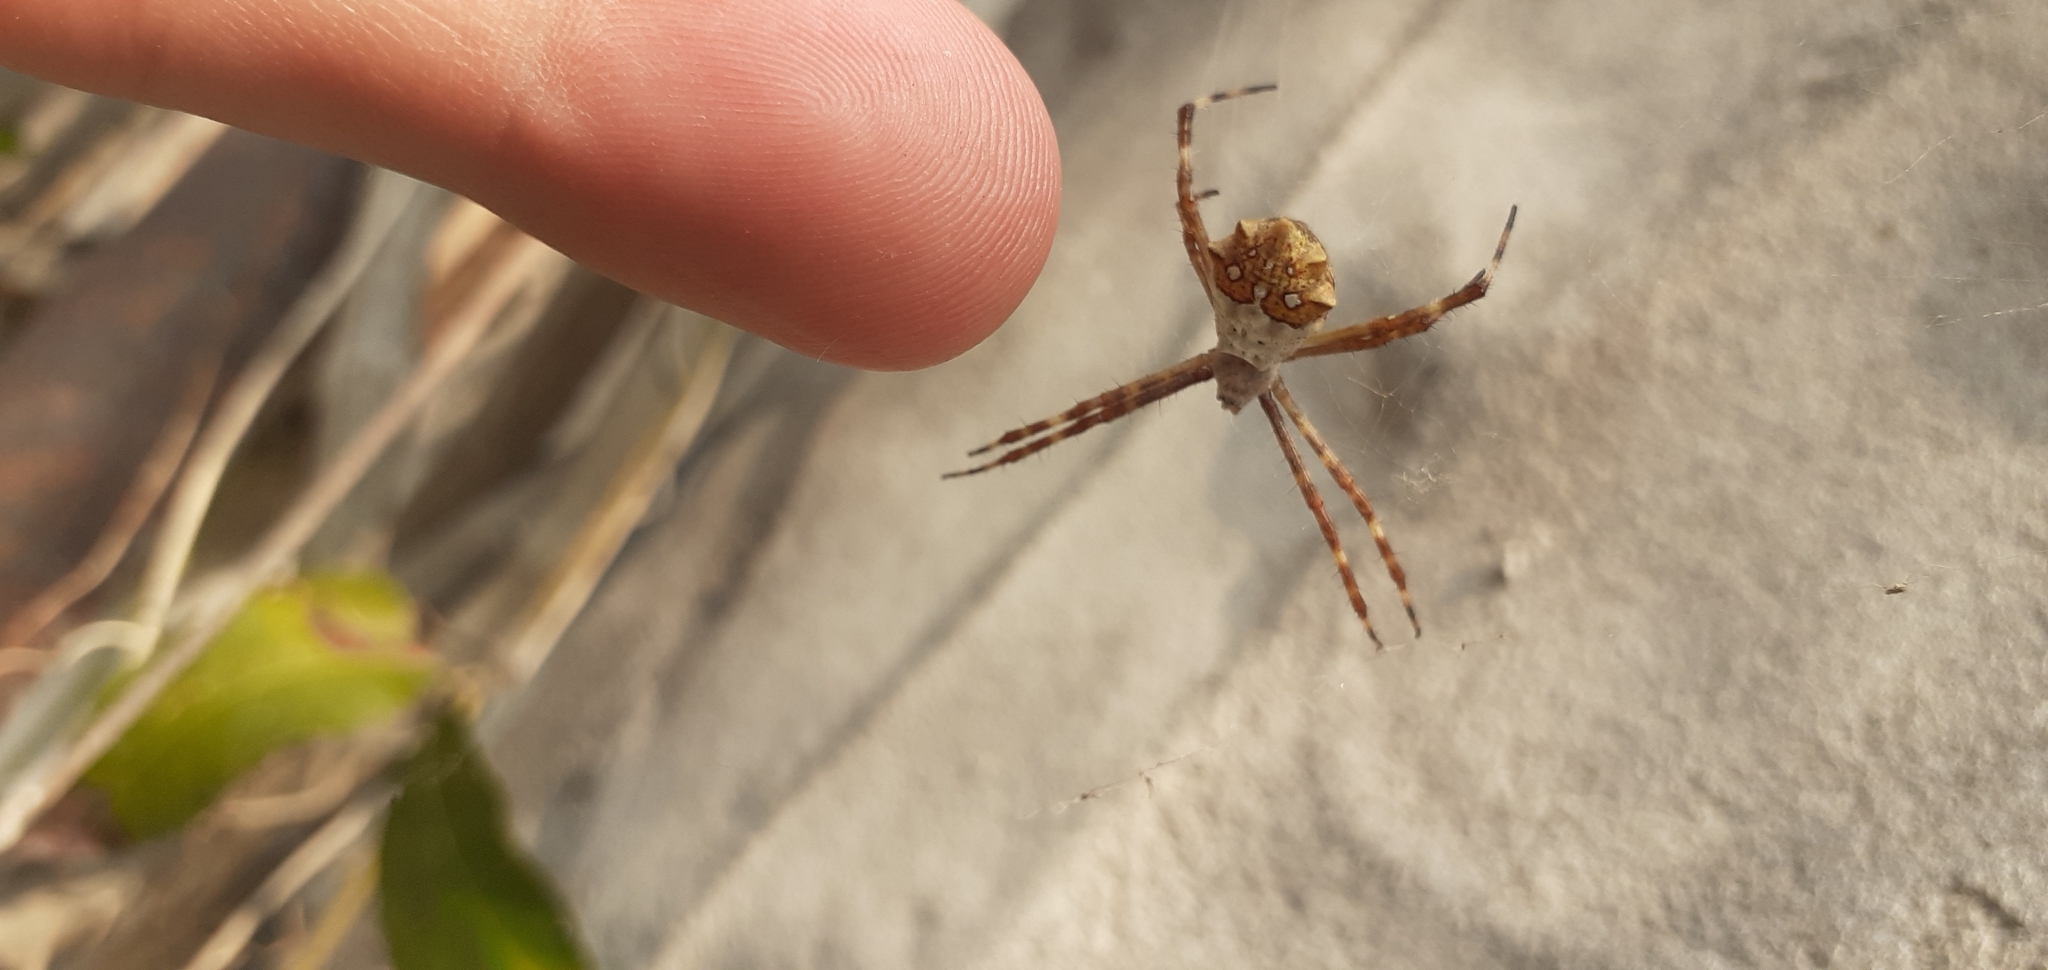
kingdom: Animalia
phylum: Arthropoda
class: Arachnida
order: Araneae
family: Araneidae
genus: Argiope
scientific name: Argiope argentata
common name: Orb weavers
